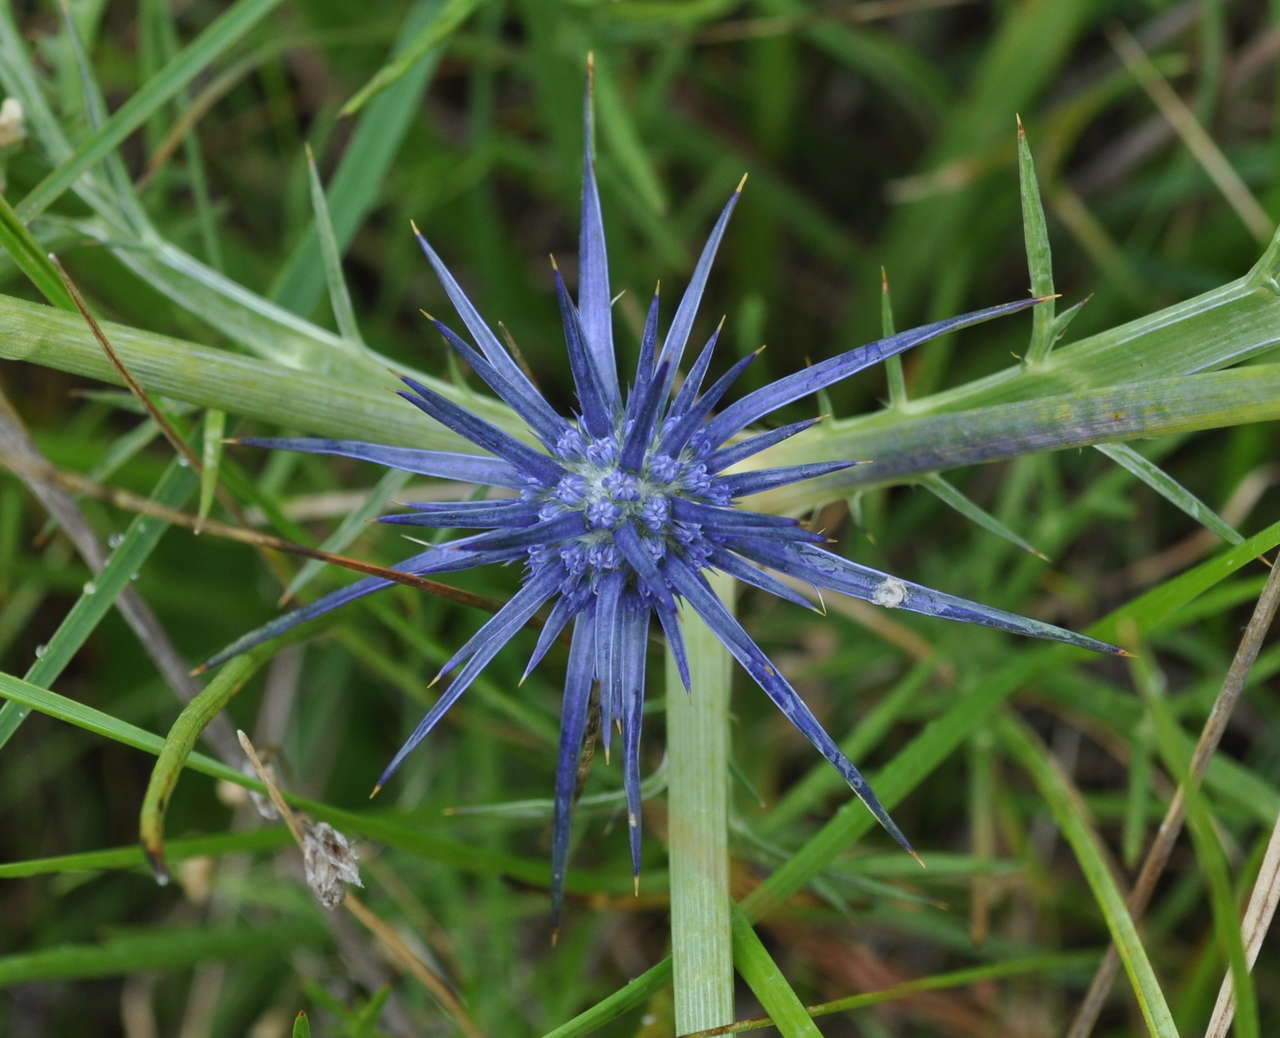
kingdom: Plantae
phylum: Tracheophyta
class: Magnoliopsida
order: Apiales
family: Apiaceae
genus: Eryngium
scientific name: Eryngium ovinum
